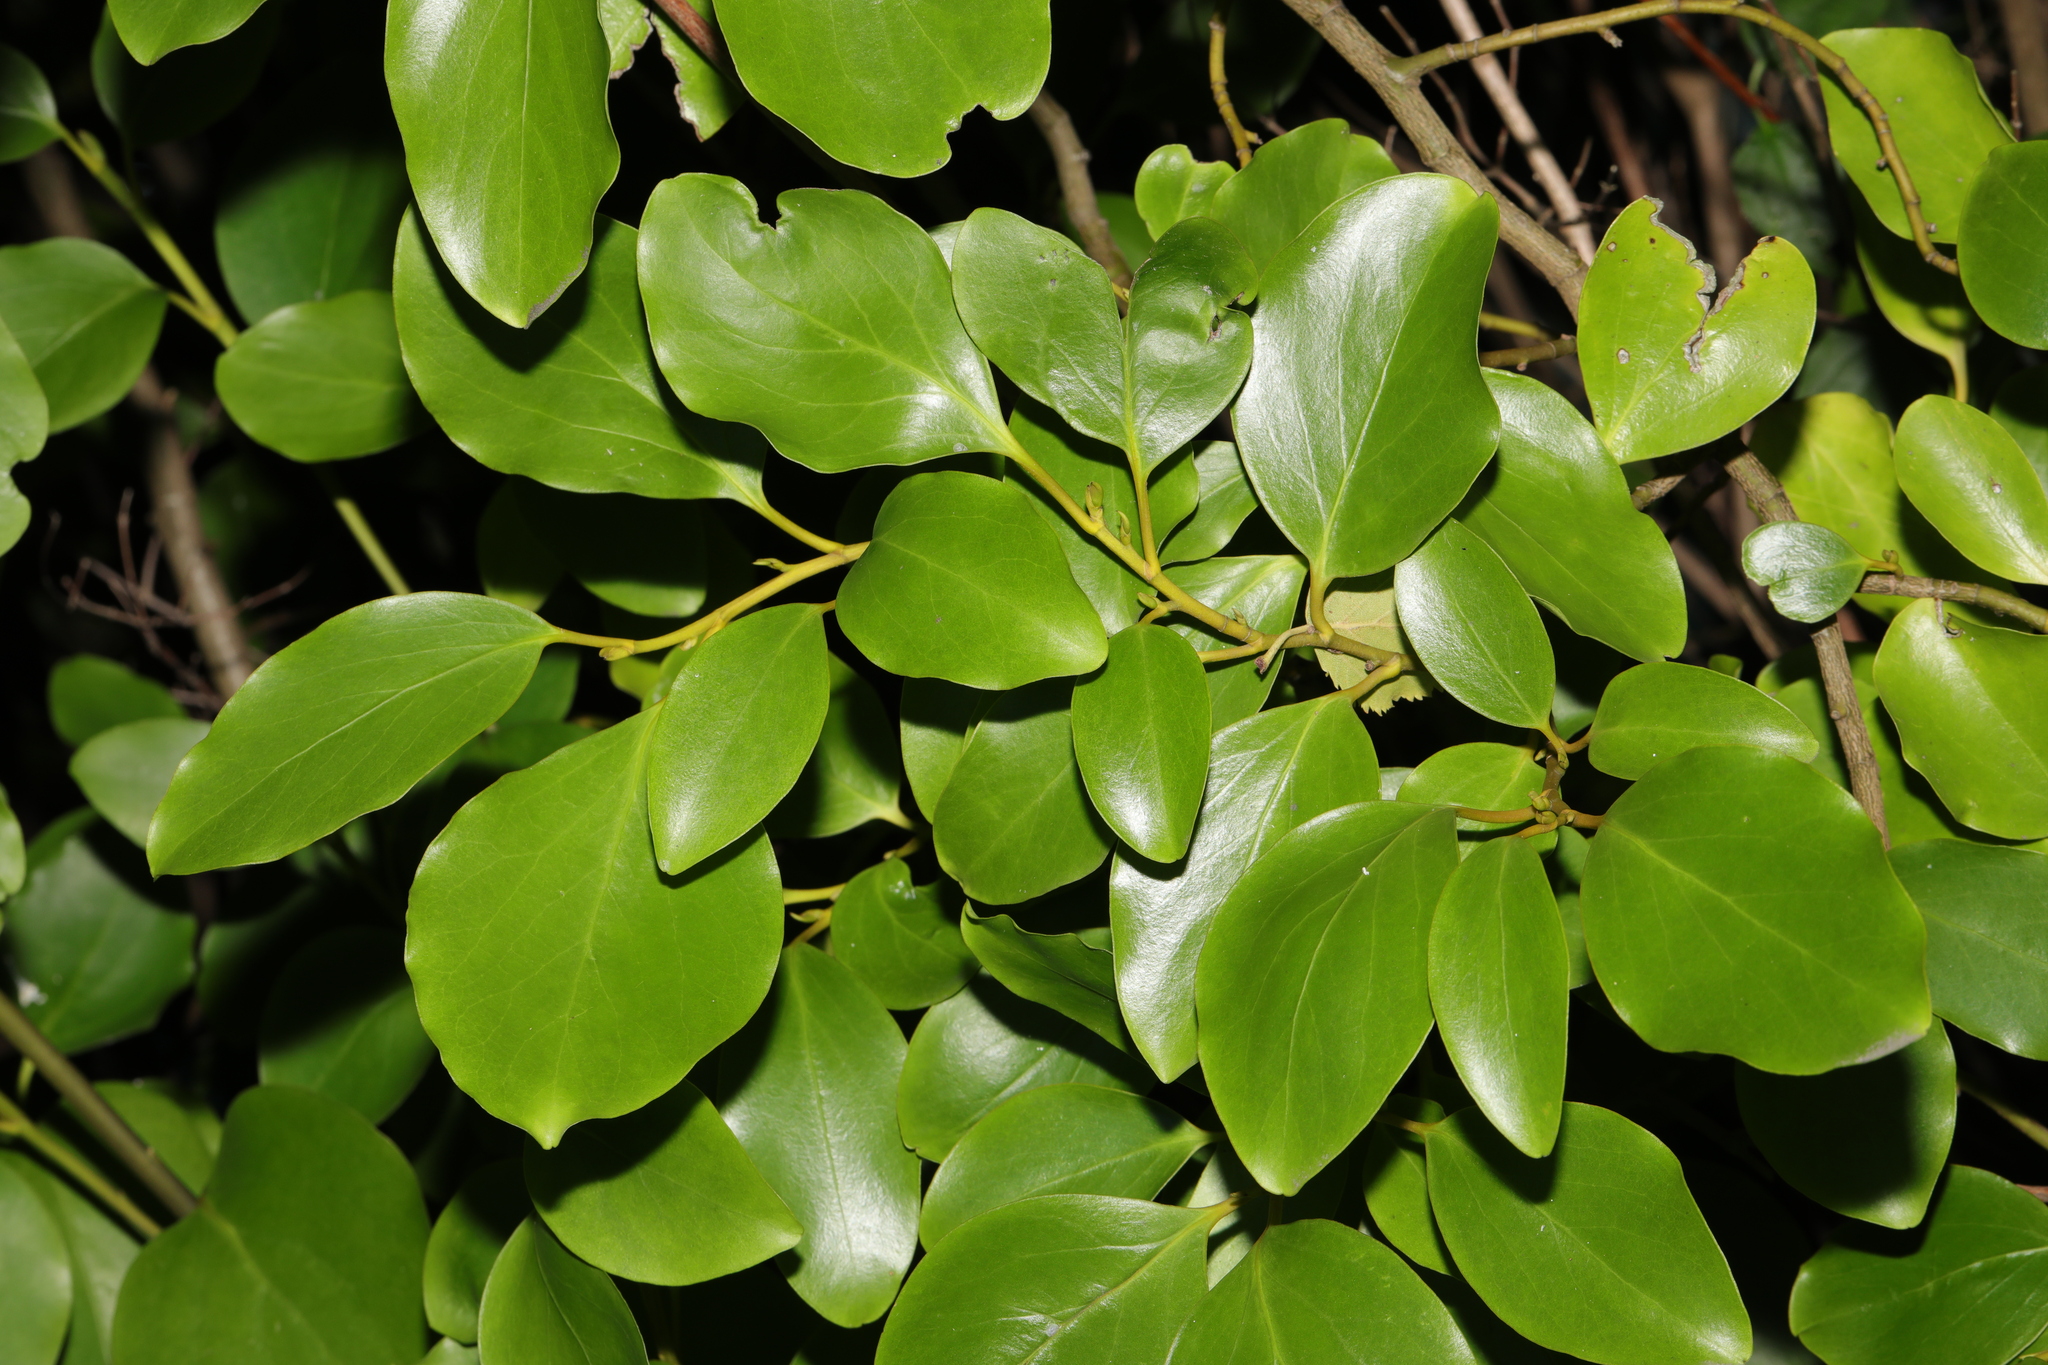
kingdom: Plantae
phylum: Tracheophyta
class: Magnoliopsida
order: Apiales
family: Griseliniaceae
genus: Griselinia
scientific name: Griselinia littoralis
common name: New zealand broadleaf
